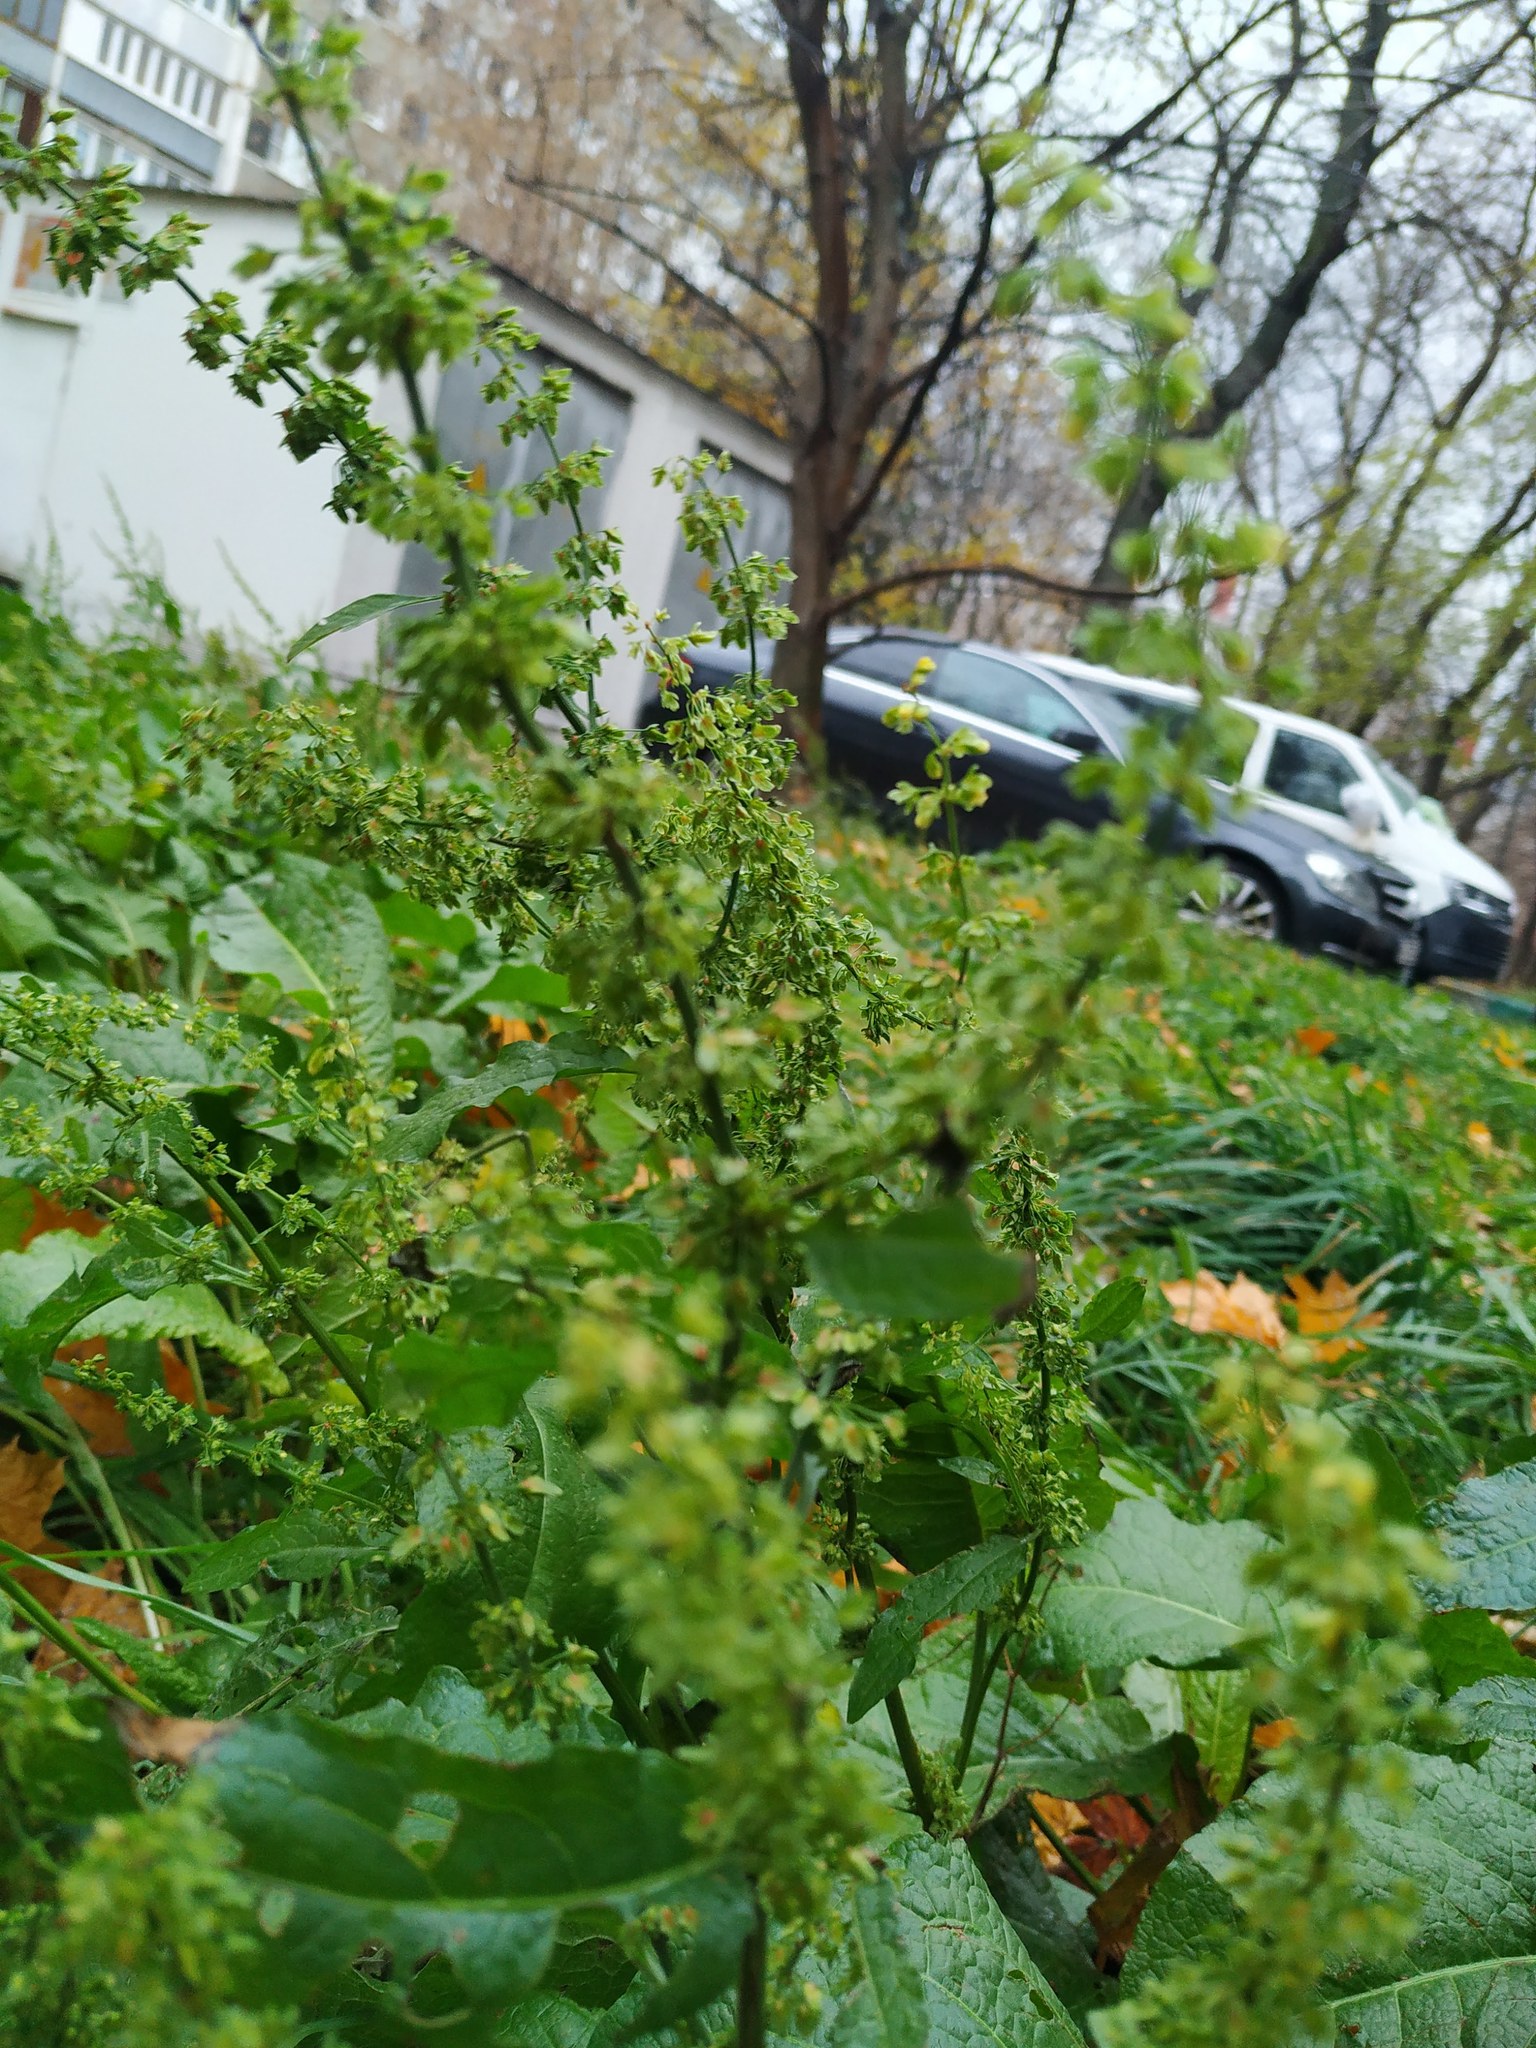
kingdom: Plantae
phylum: Tracheophyta
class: Magnoliopsida
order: Caryophyllales
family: Polygonaceae
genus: Rumex
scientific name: Rumex obtusifolius
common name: Bitter dock
